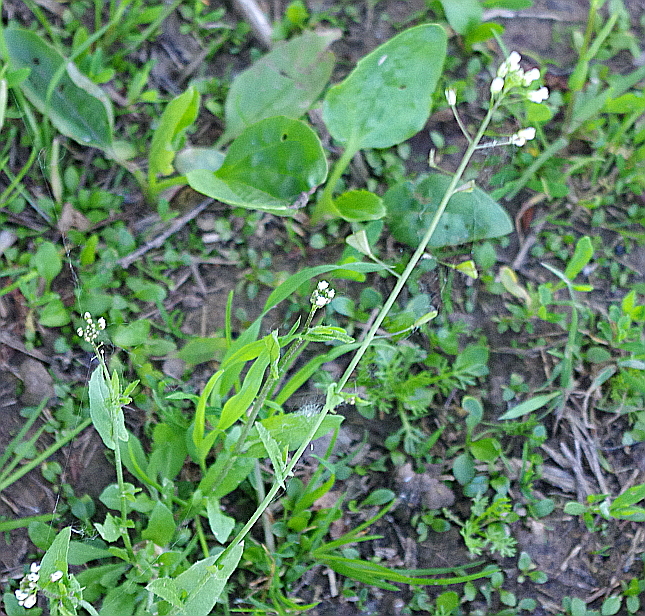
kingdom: Plantae
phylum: Tracheophyta
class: Magnoliopsida
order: Brassicales
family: Brassicaceae
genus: Capsella
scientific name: Capsella bursa-pastoris
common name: Shepherd's purse
